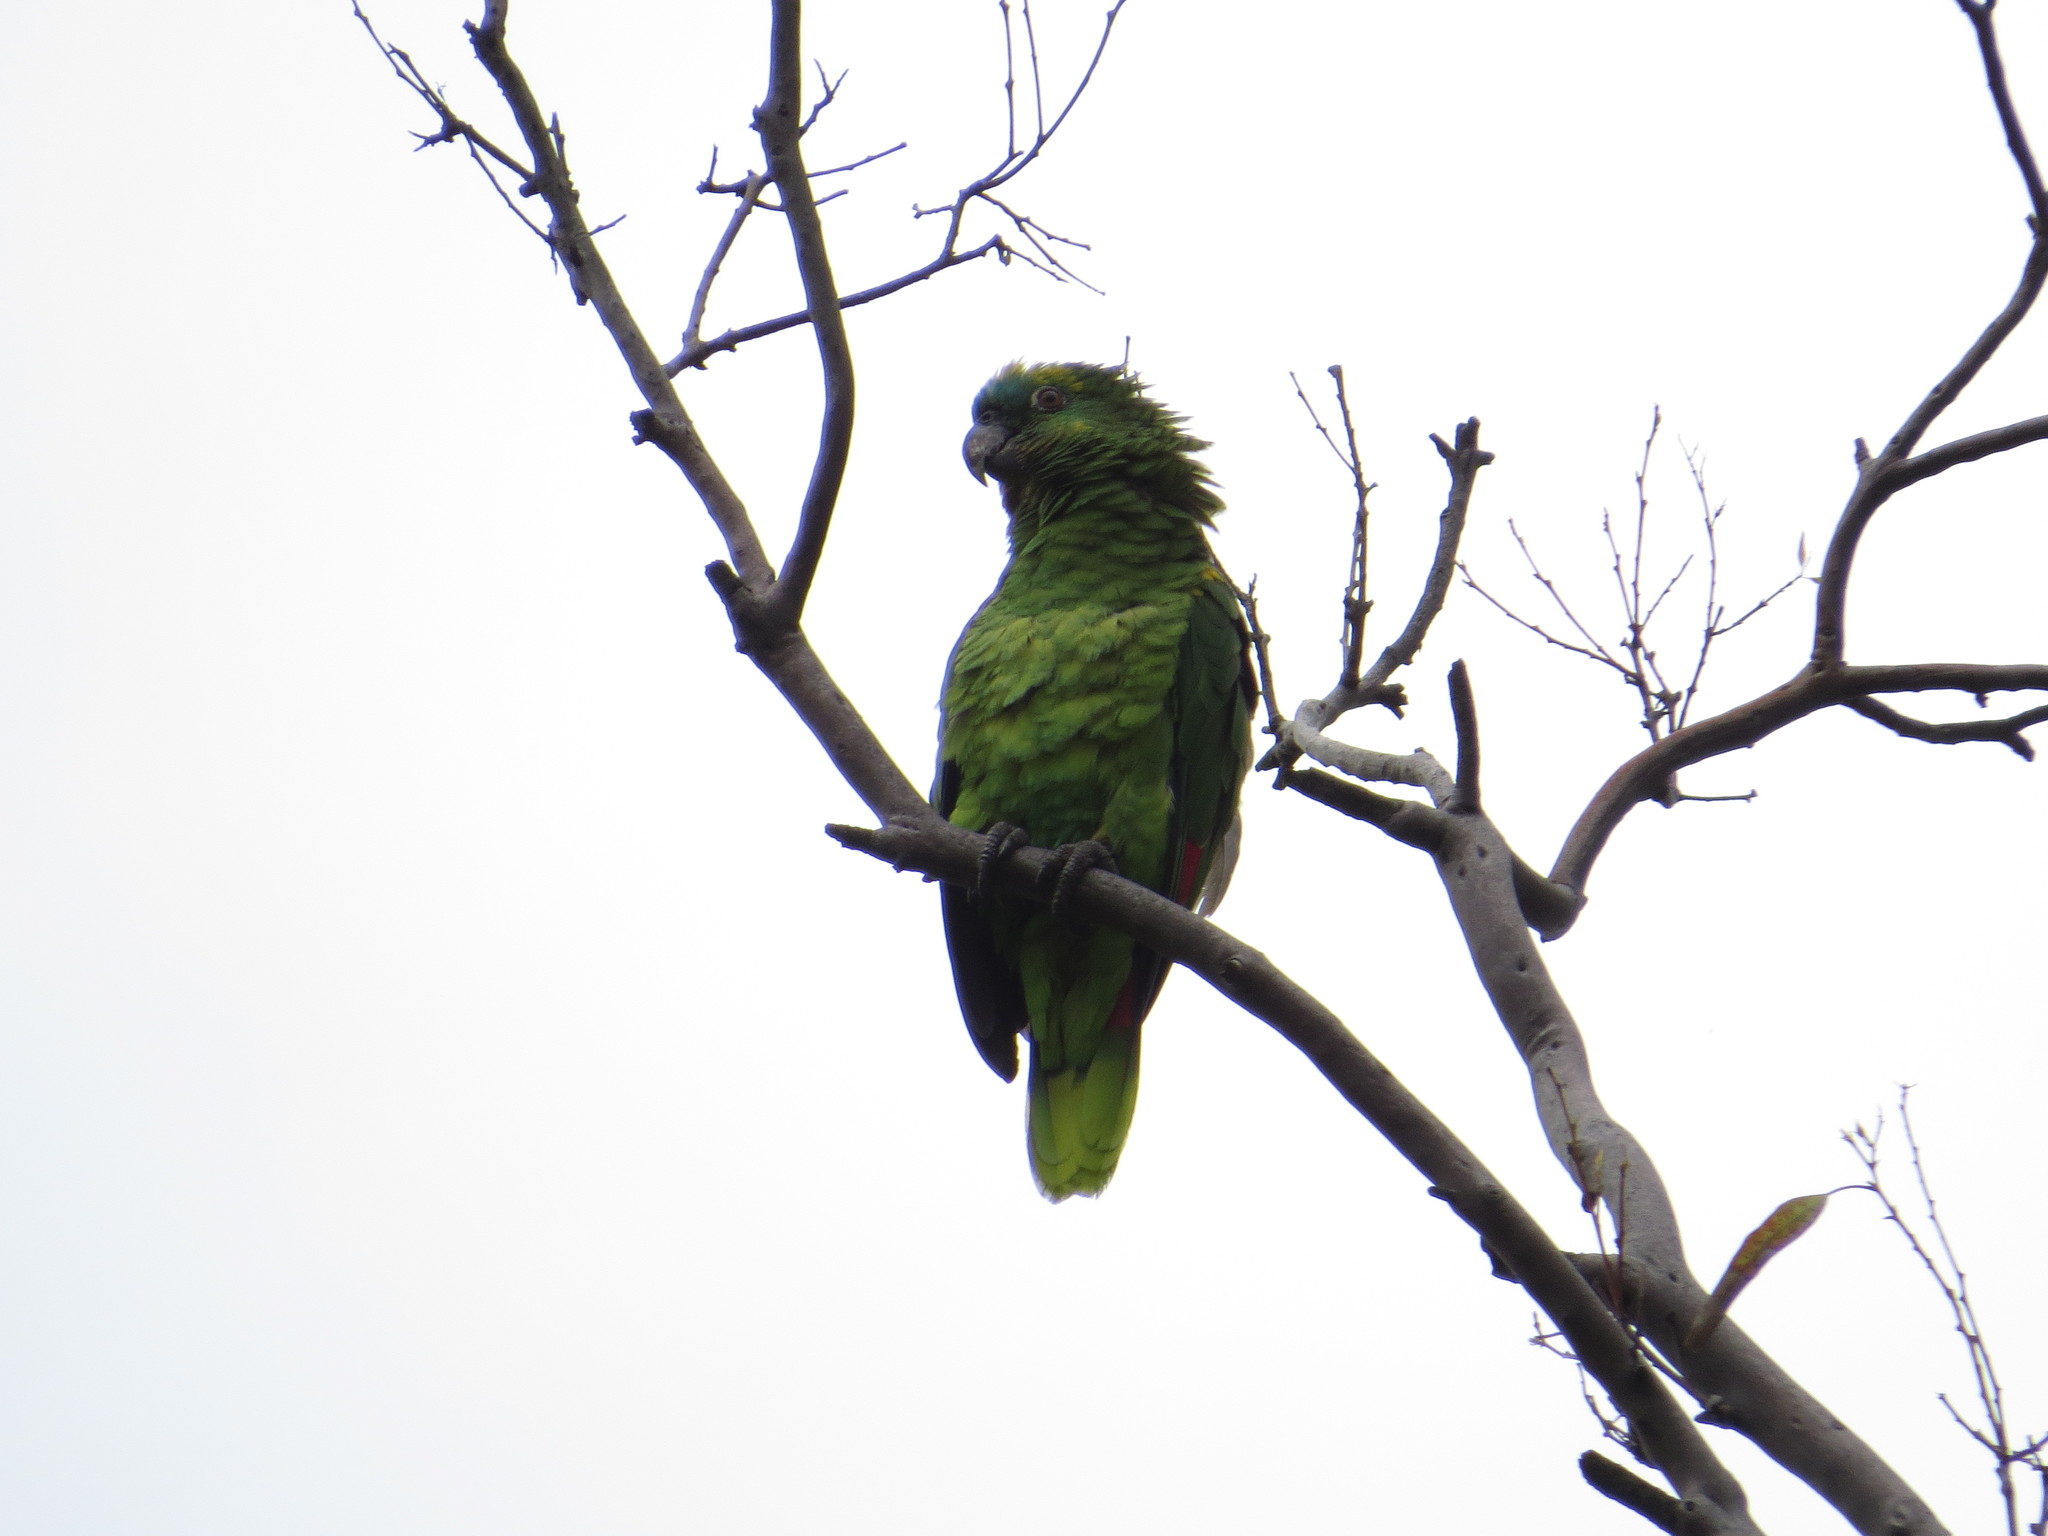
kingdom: Animalia
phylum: Chordata
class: Aves
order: Psittaciformes
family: Psittacidae
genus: Amazona
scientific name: Amazona aestiva
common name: Turquoise-fronted amazon
